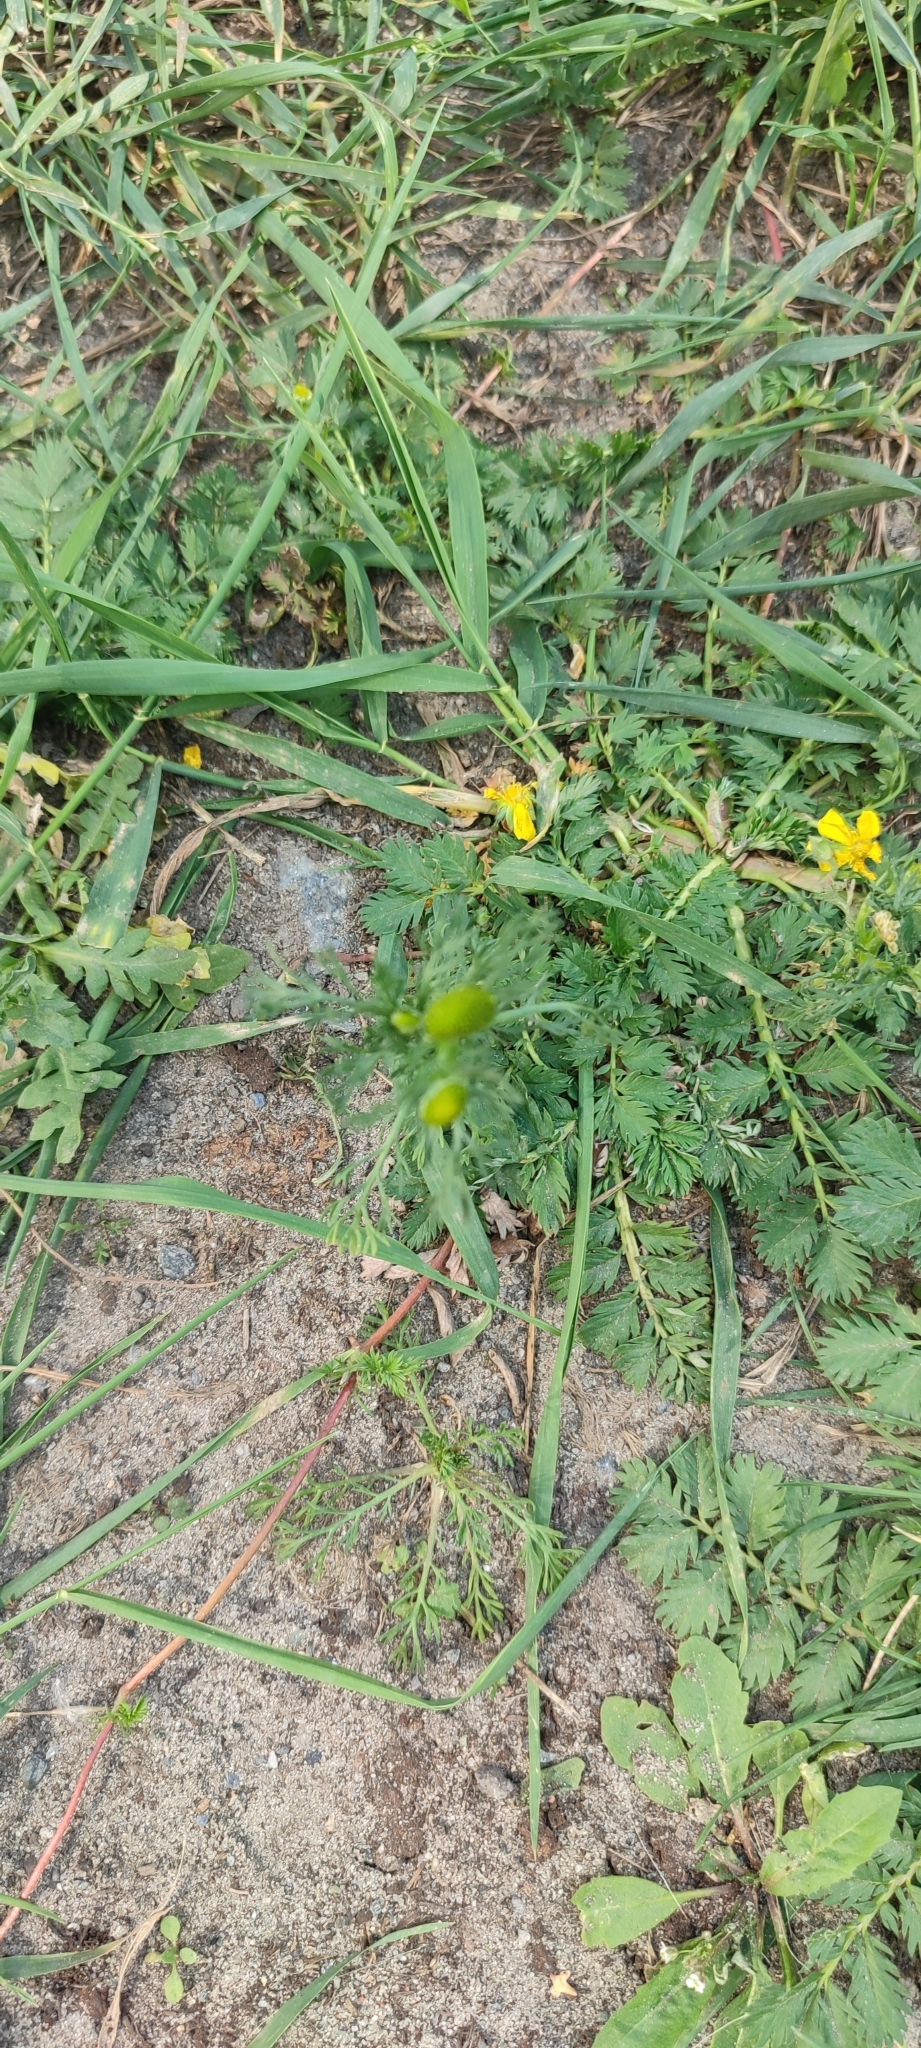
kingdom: Plantae
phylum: Tracheophyta
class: Magnoliopsida
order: Asterales
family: Asteraceae
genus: Matricaria
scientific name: Matricaria discoidea
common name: Disc mayweed
